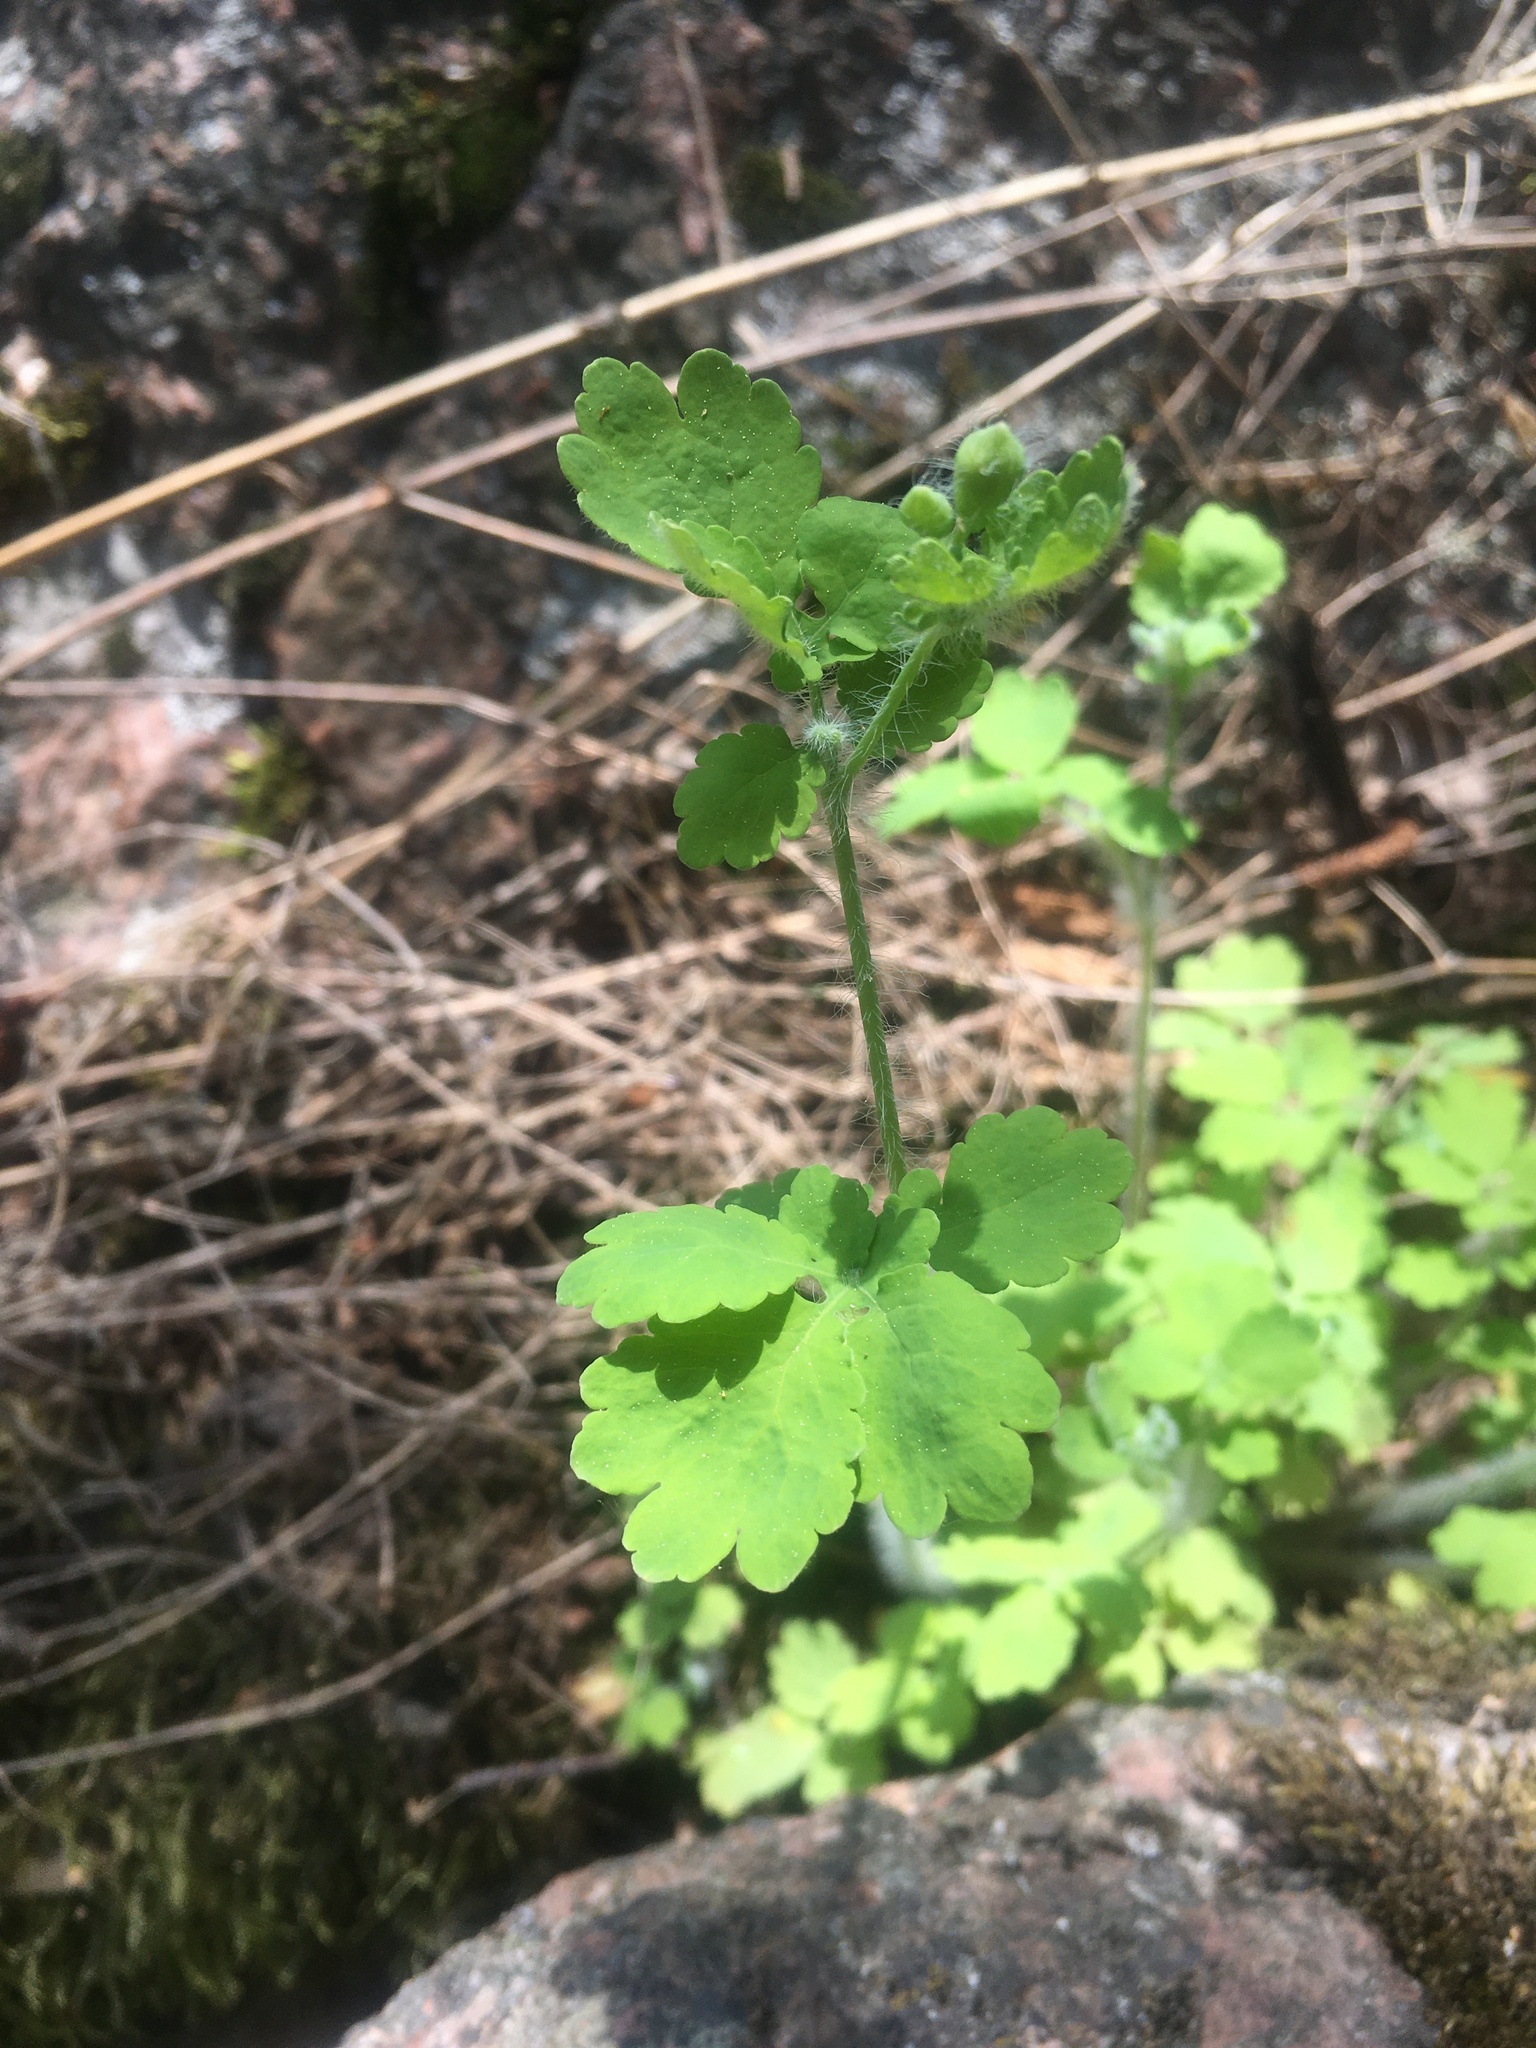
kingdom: Plantae
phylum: Tracheophyta
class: Magnoliopsida
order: Ranunculales
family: Papaveraceae
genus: Chelidonium
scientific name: Chelidonium majus
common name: Greater celandine
